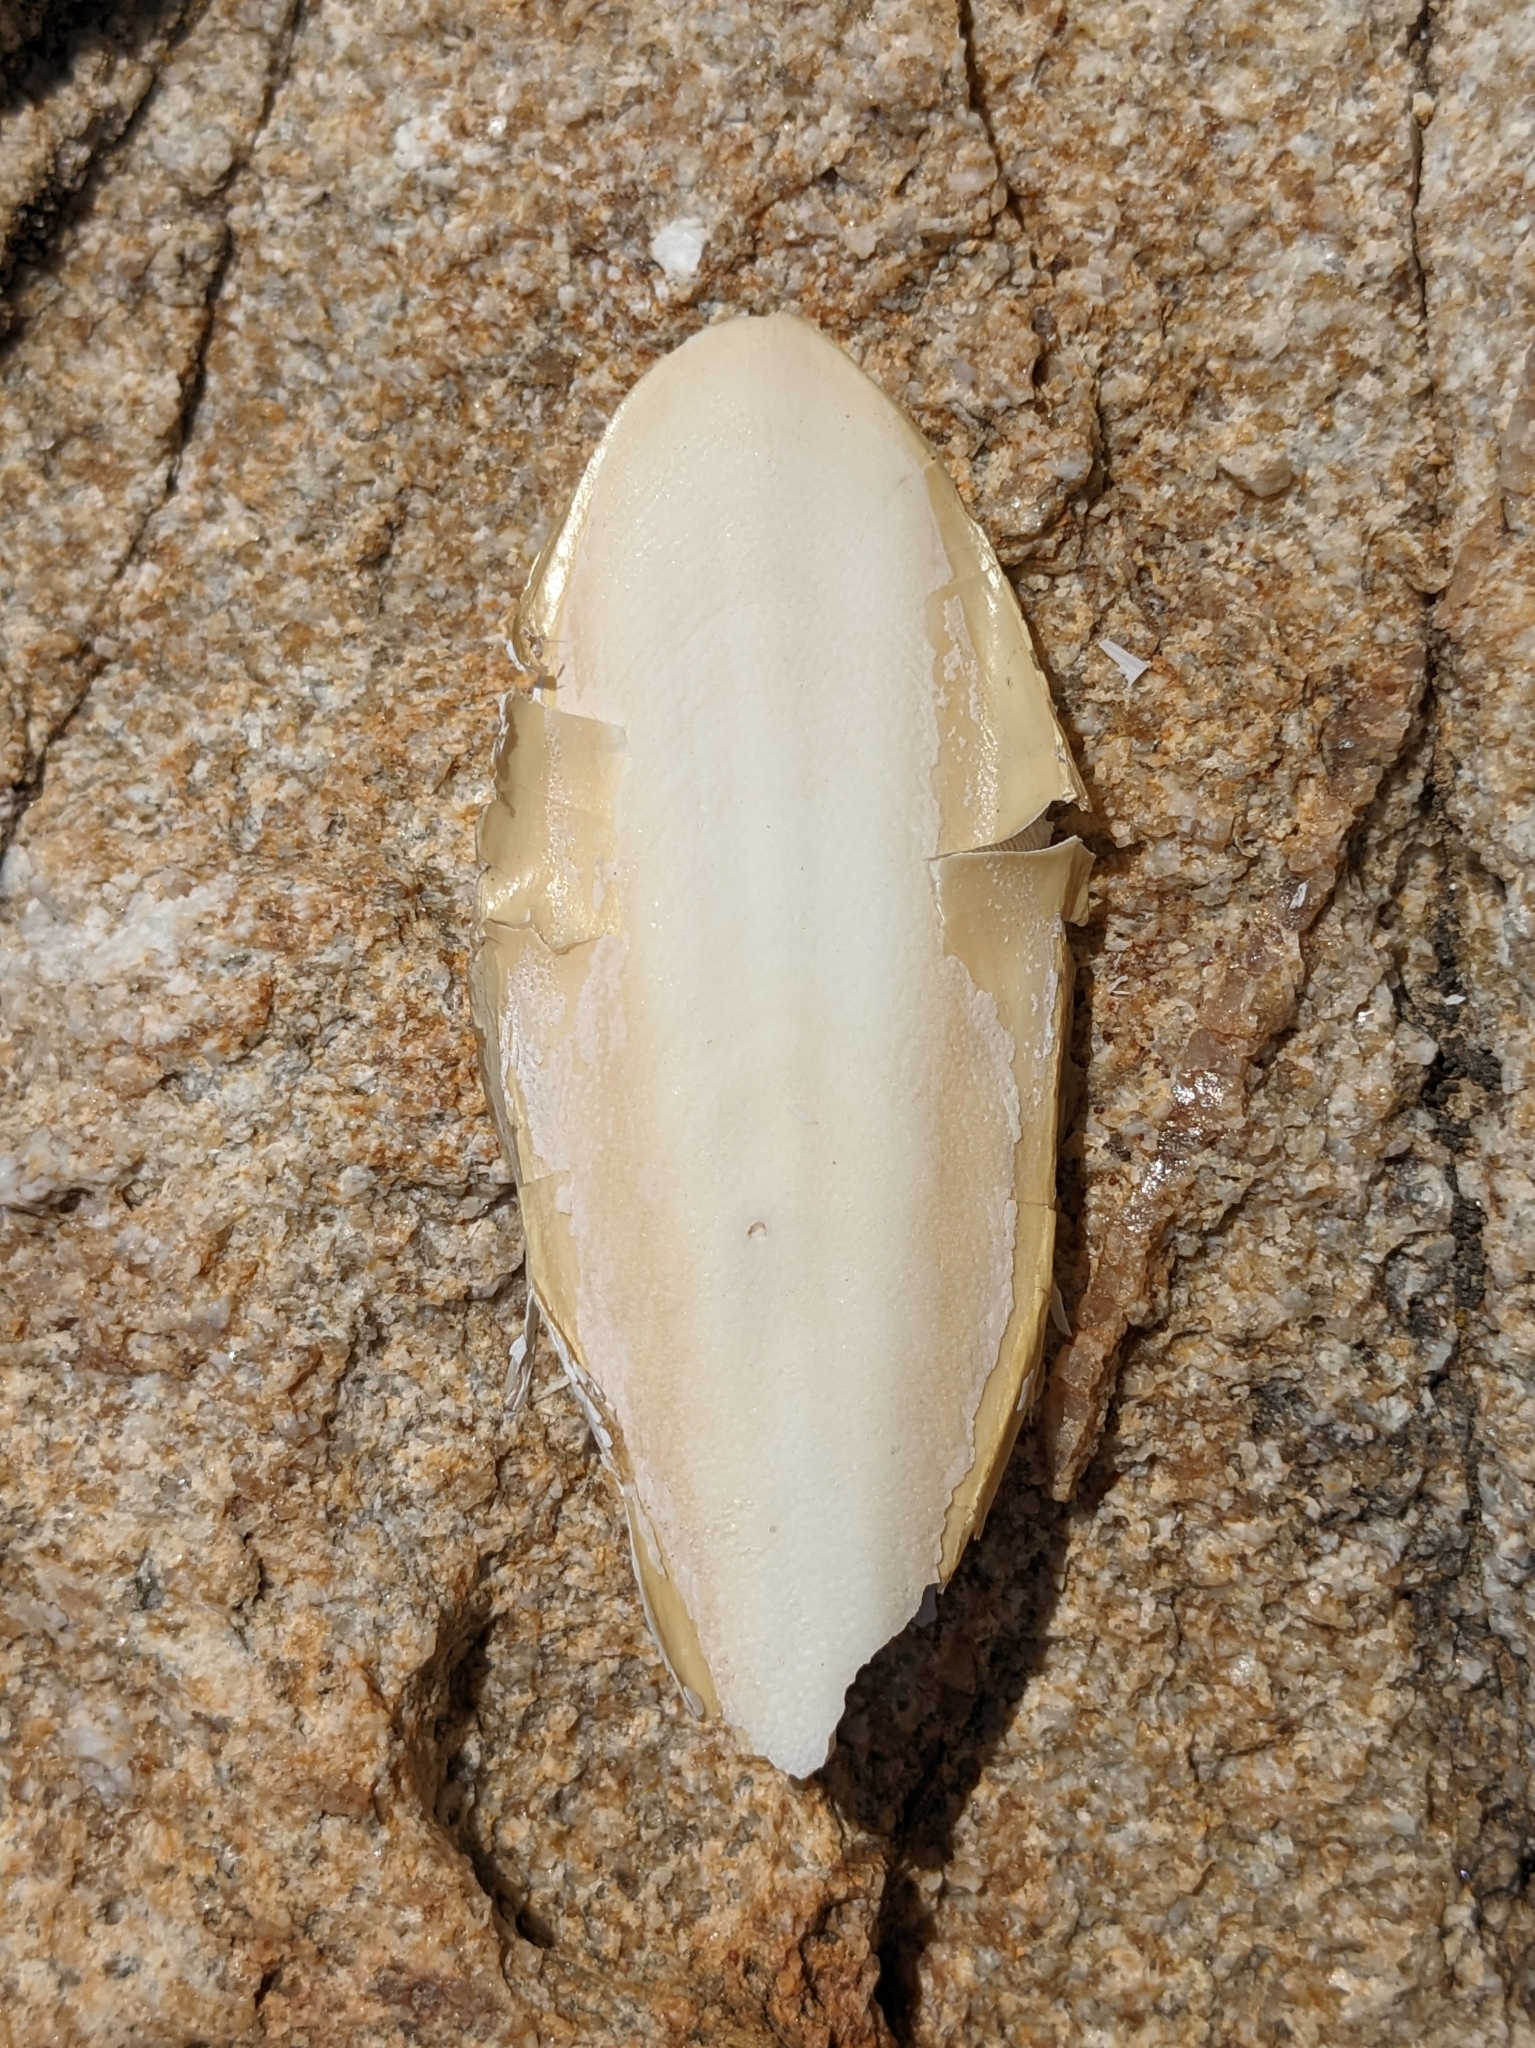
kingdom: Animalia
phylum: Mollusca
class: Cephalopoda
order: Sepiida
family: Sepiidae
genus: Sepia
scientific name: Sepia officinalis
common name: Common cuttlefish
